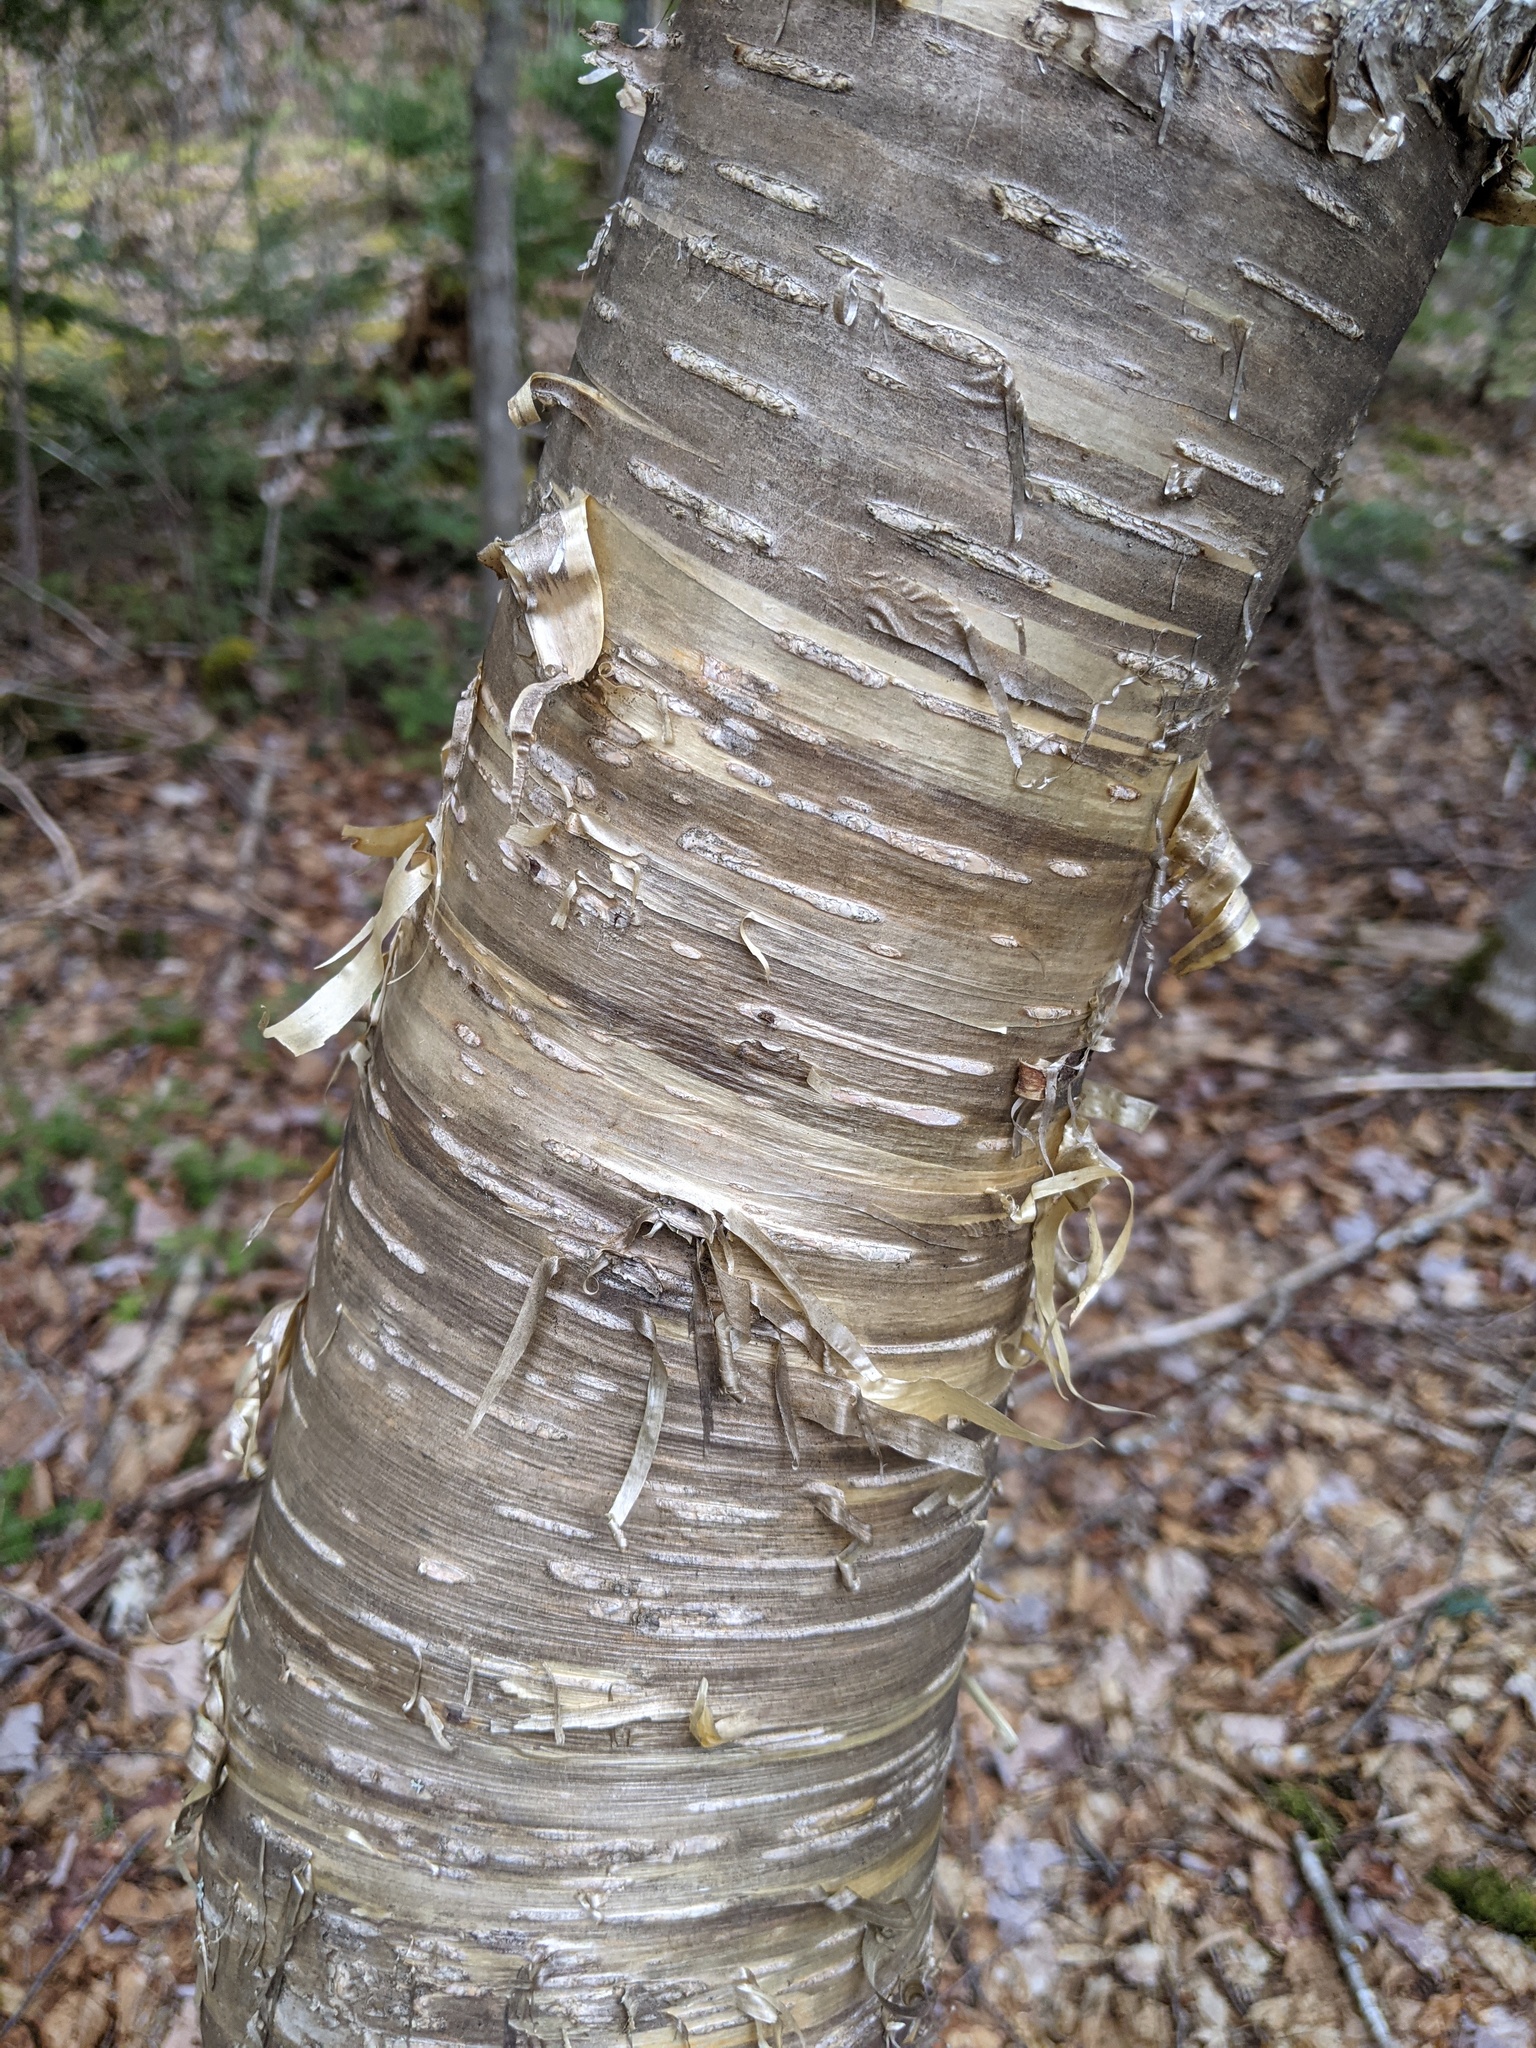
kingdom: Plantae
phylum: Tracheophyta
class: Magnoliopsida
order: Fagales
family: Betulaceae
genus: Betula
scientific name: Betula alleghaniensis
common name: Yellow birch
